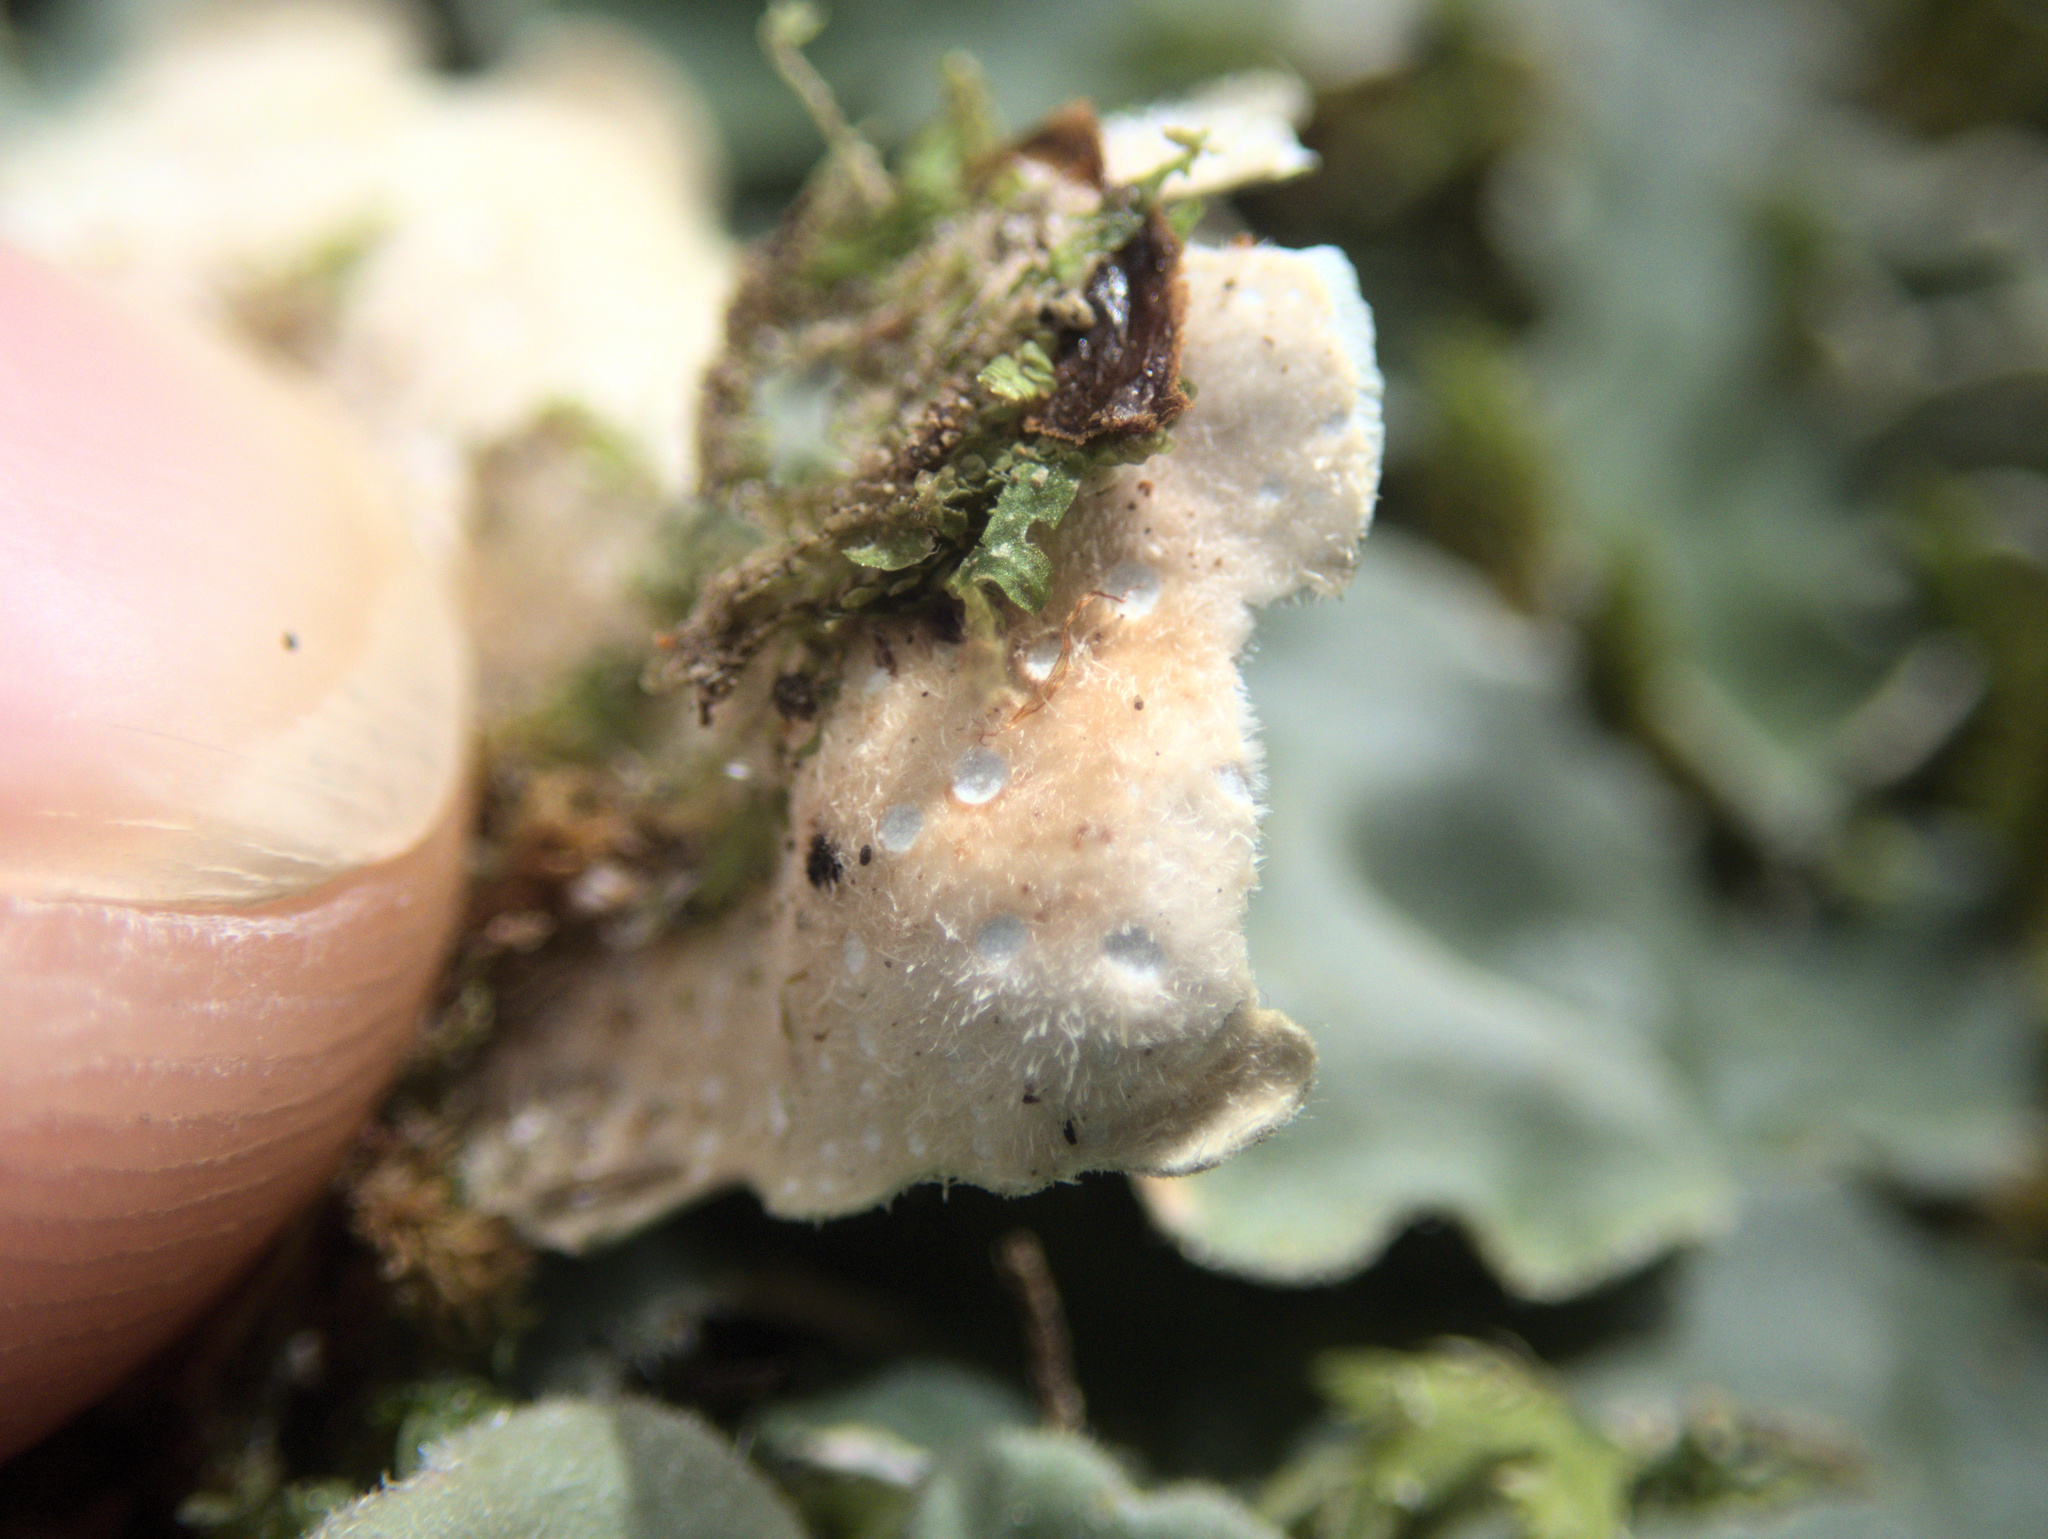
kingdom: Fungi
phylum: Ascomycota
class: Lecanoromycetes
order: Peltigerales
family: Lobariaceae
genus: Pseudocyphellaria
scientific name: Pseudocyphellaria coriacea
